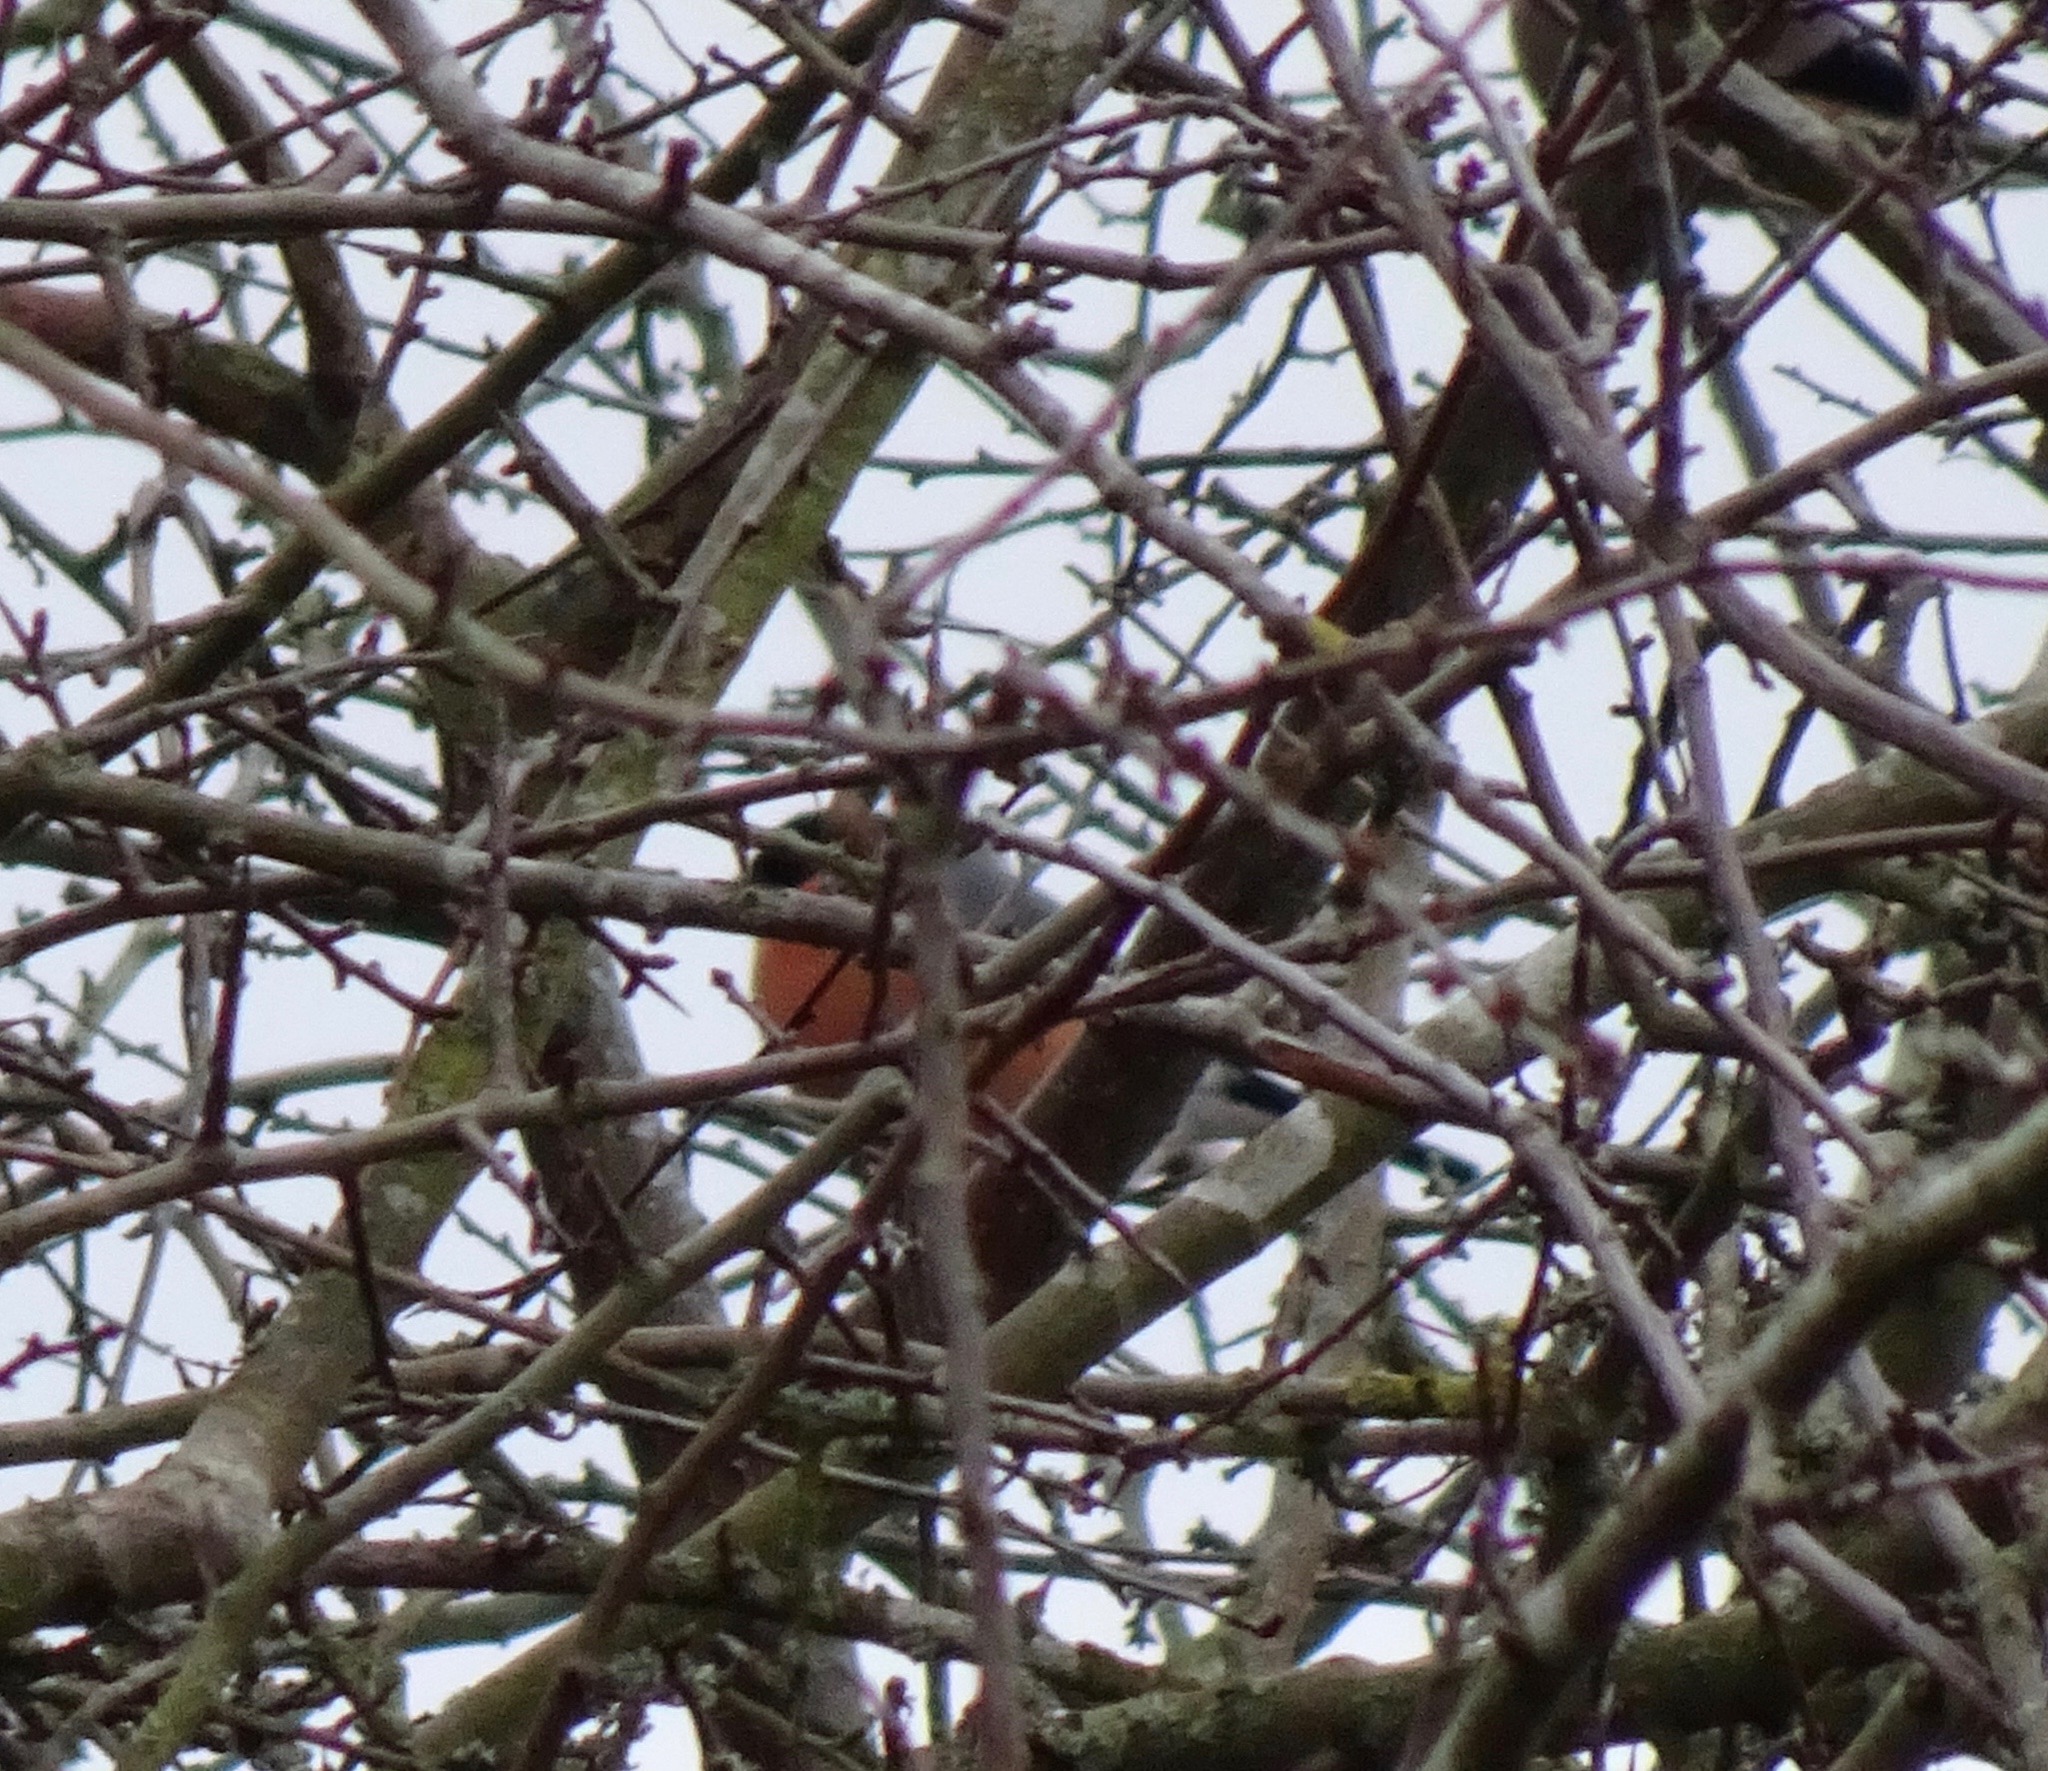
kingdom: Animalia
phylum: Chordata
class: Aves
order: Passeriformes
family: Fringillidae
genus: Pyrrhula
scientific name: Pyrrhula pyrrhula
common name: Eurasian bullfinch
